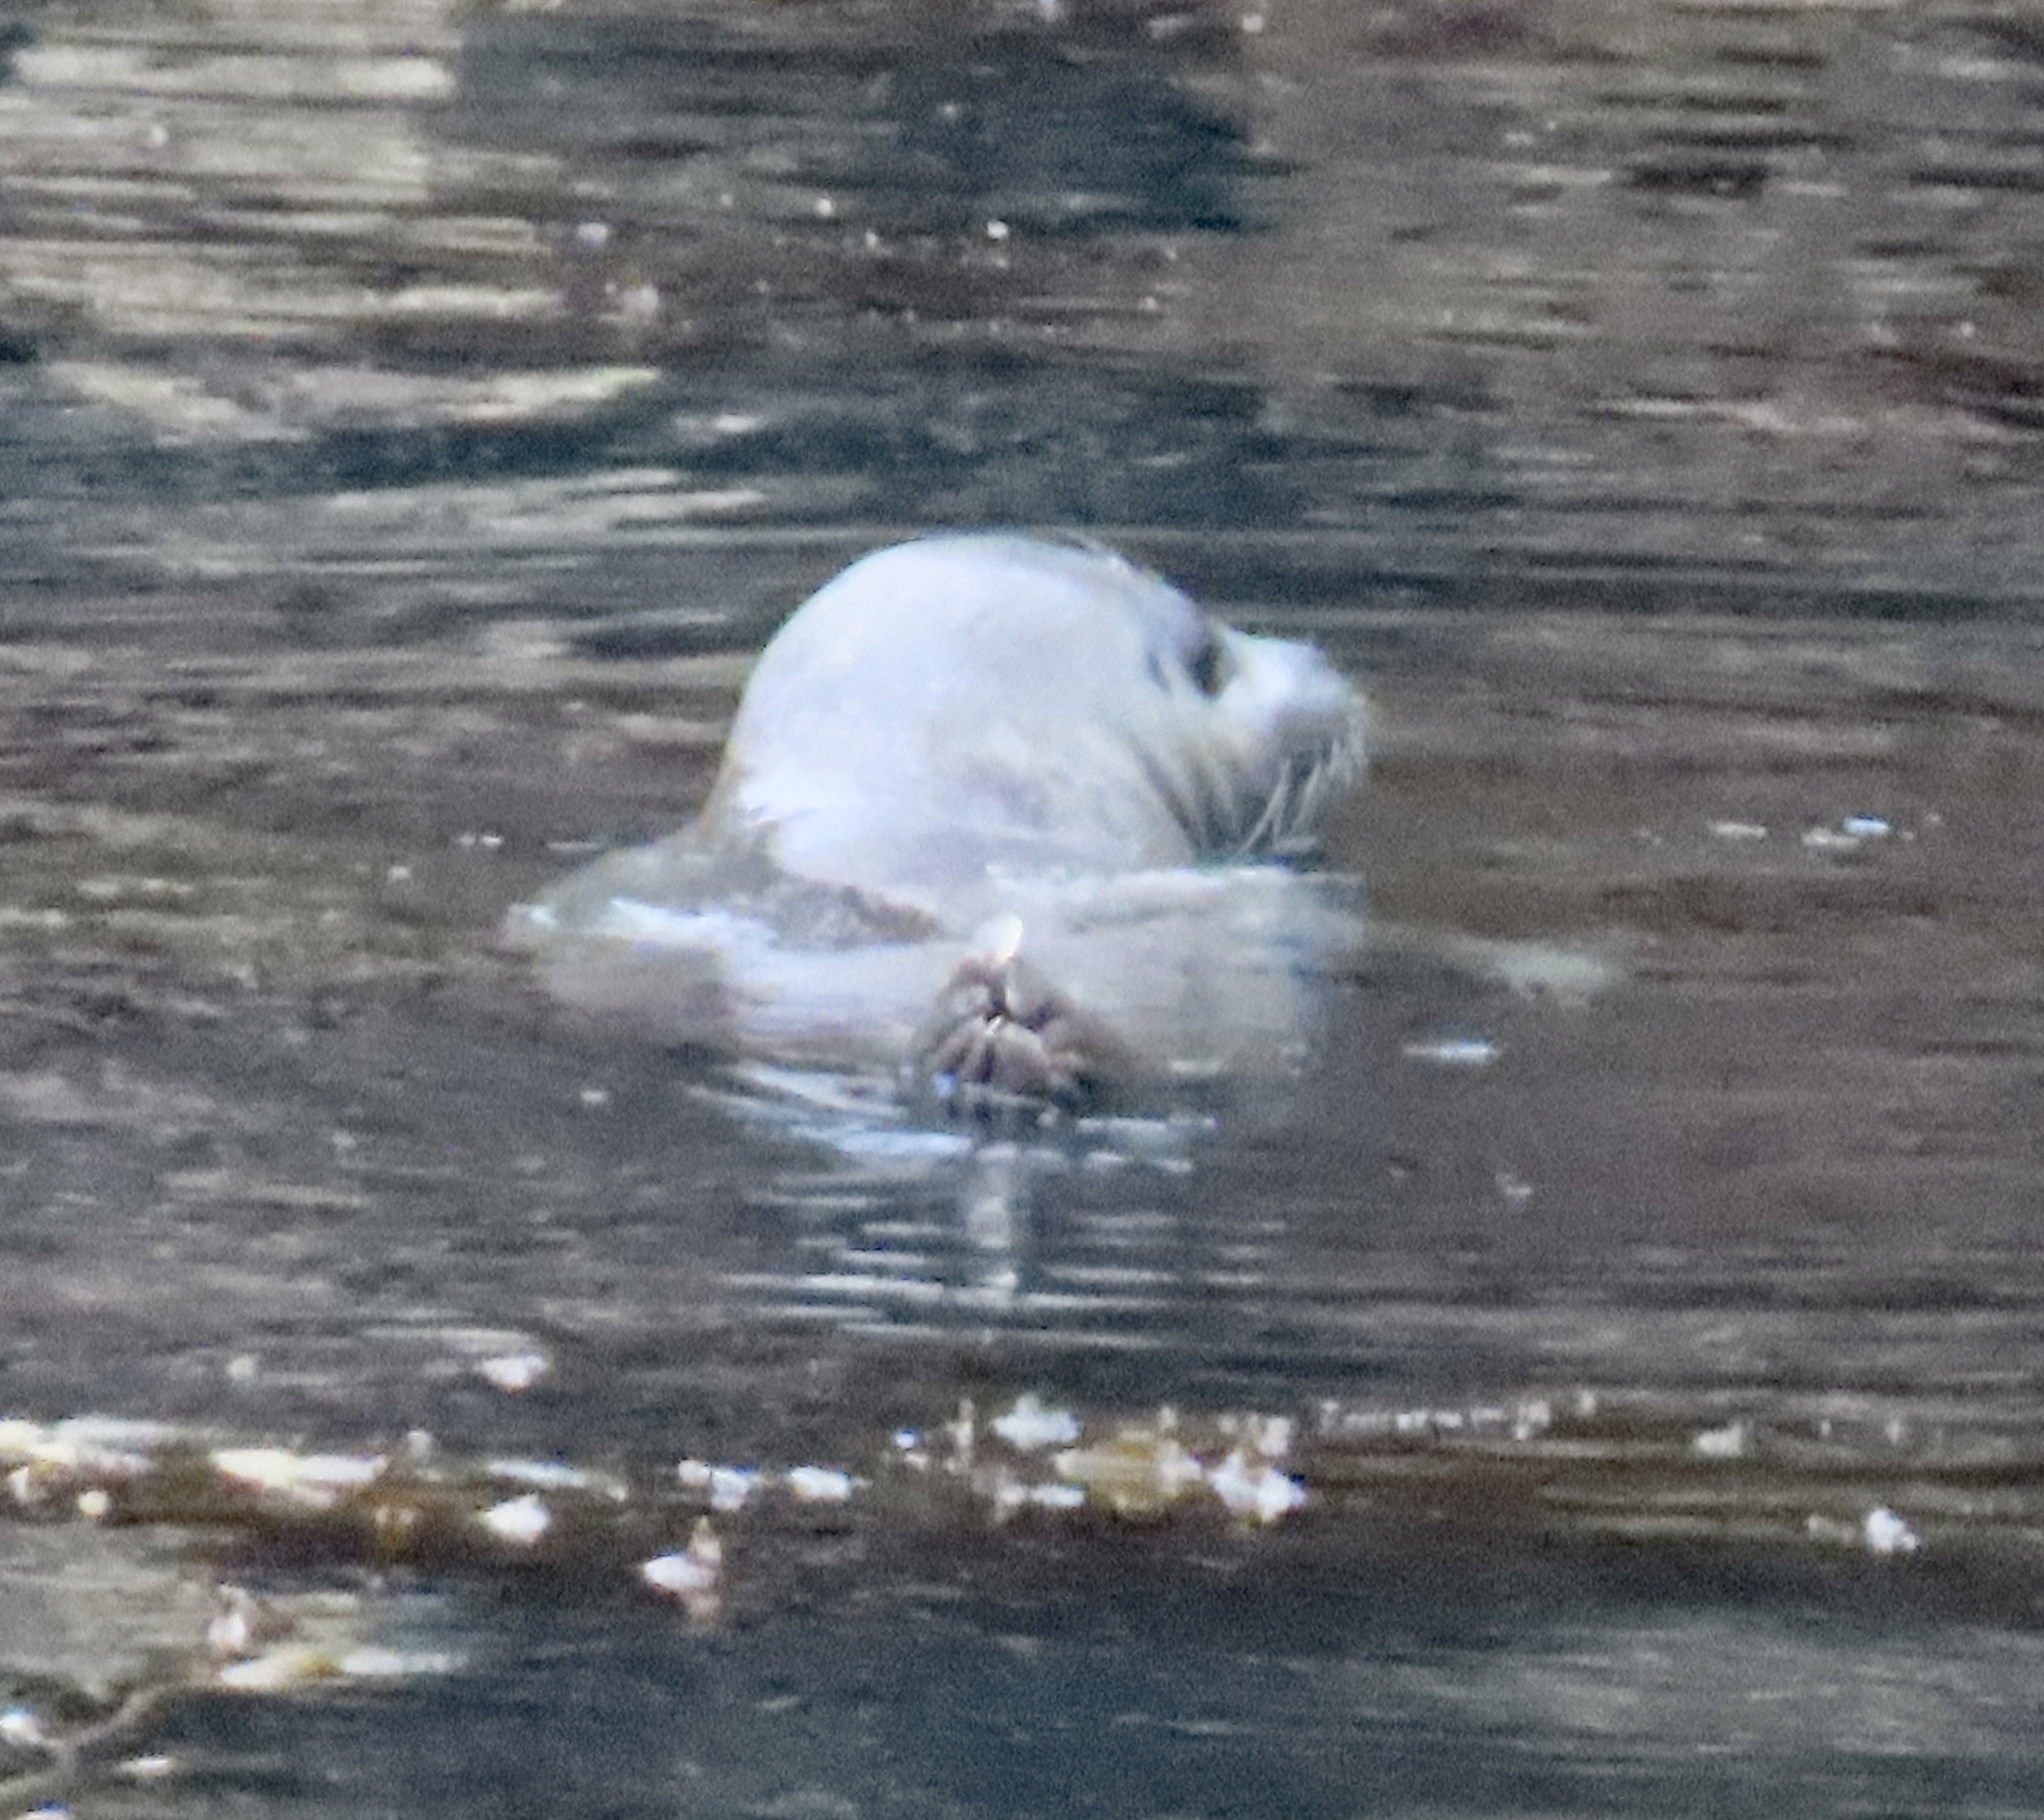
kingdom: Animalia
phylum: Chordata
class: Mammalia
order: Carnivora
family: Phocidae
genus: Phoca
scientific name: Phoca vitulina
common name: Harbor seal
